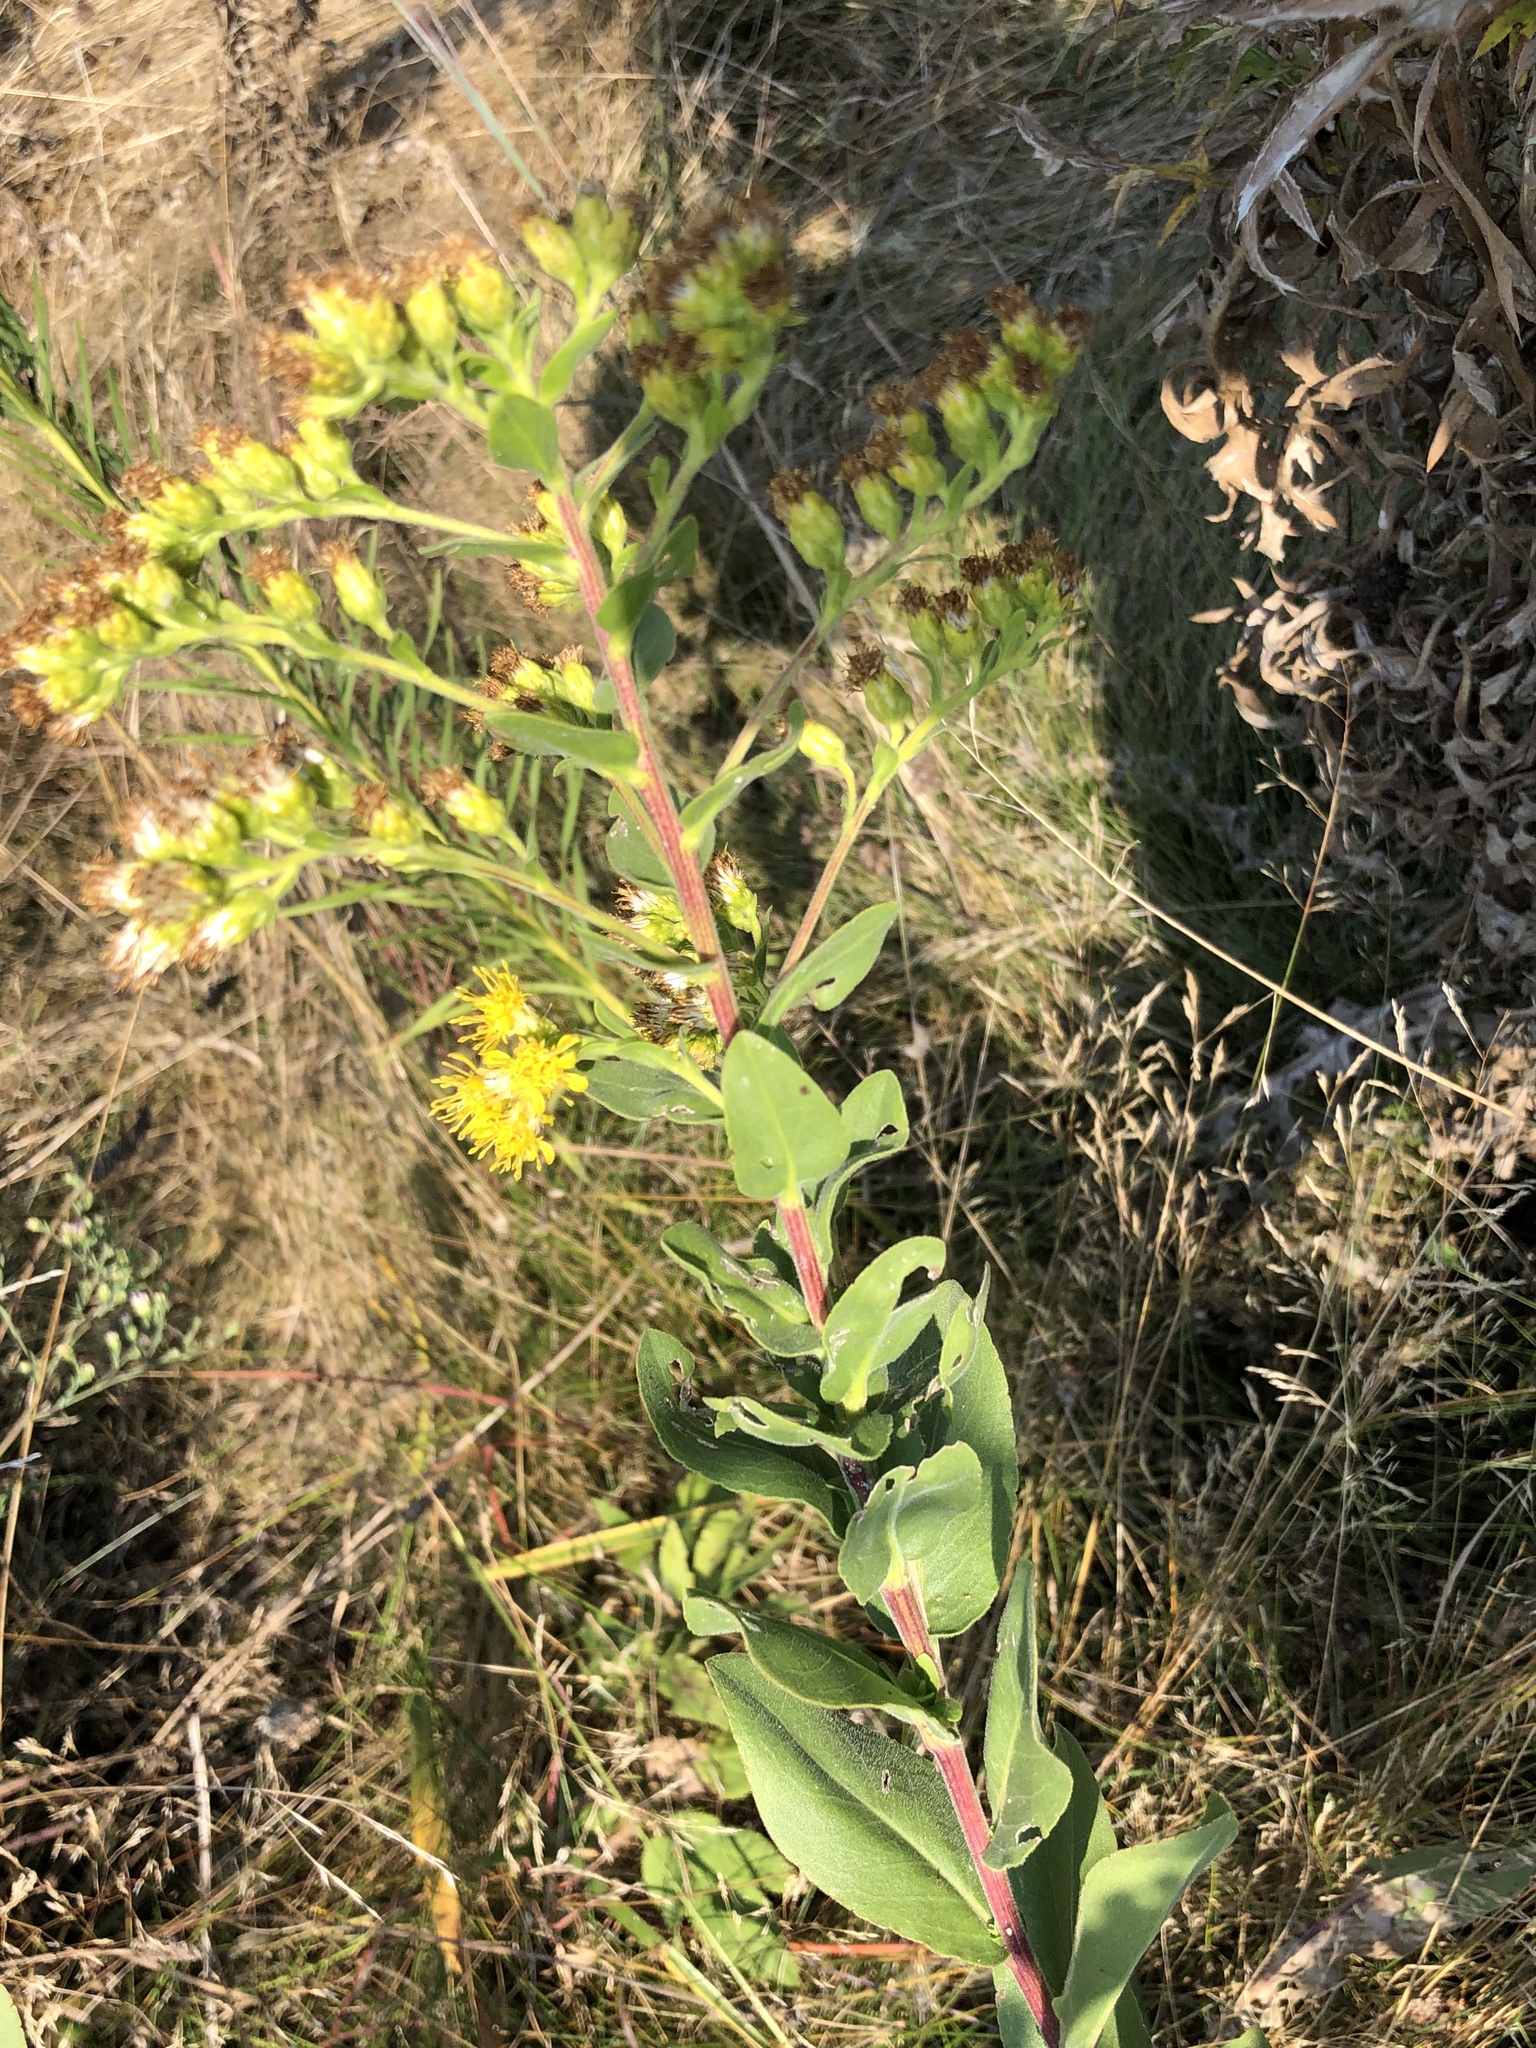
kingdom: Plantae
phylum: Tracheophyta
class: Magnoliopsida
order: Asterales
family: Asteraceae
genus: Solidago
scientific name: Solidago rigida
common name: Rigid goldenrod
